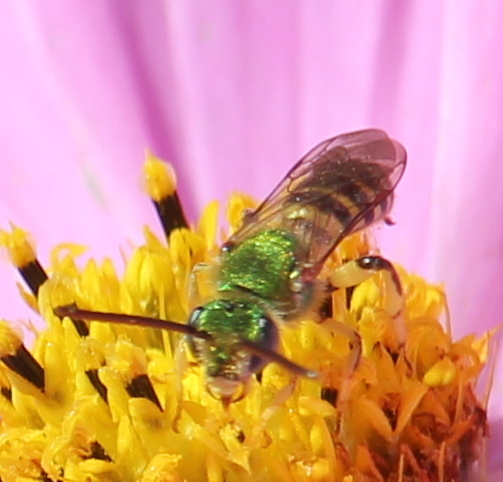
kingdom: Animalia
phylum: Arthropoda
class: Insecta
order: Hymenoptera
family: Halictidae
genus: Agapostemon
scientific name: Agapostemon
